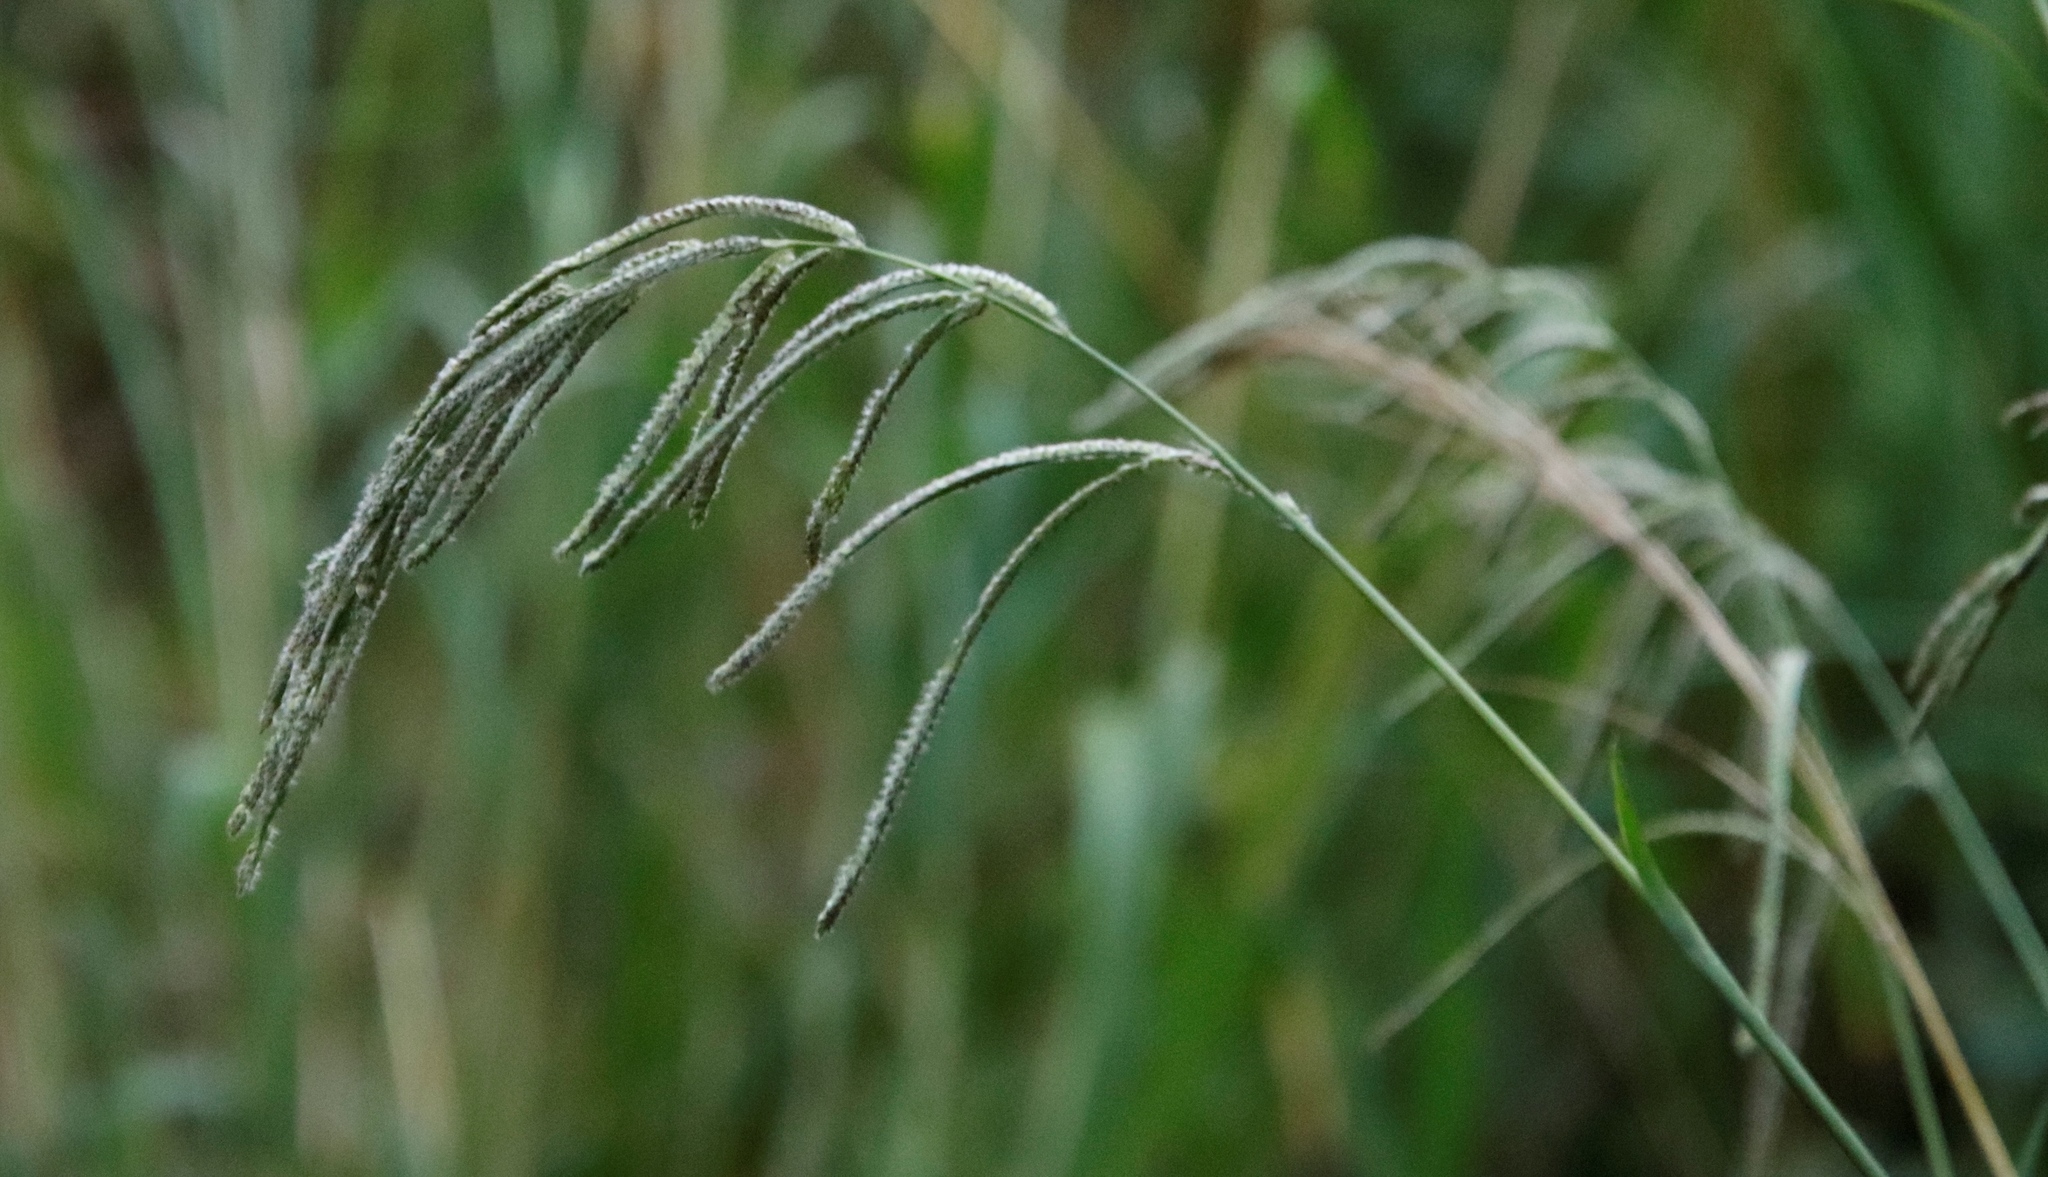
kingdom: Plantae
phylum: Tracheophyta
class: Liliopsida
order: Poales
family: Poaceae
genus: Paspalum
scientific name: Paspalum urvillei
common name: Vasey's grass
